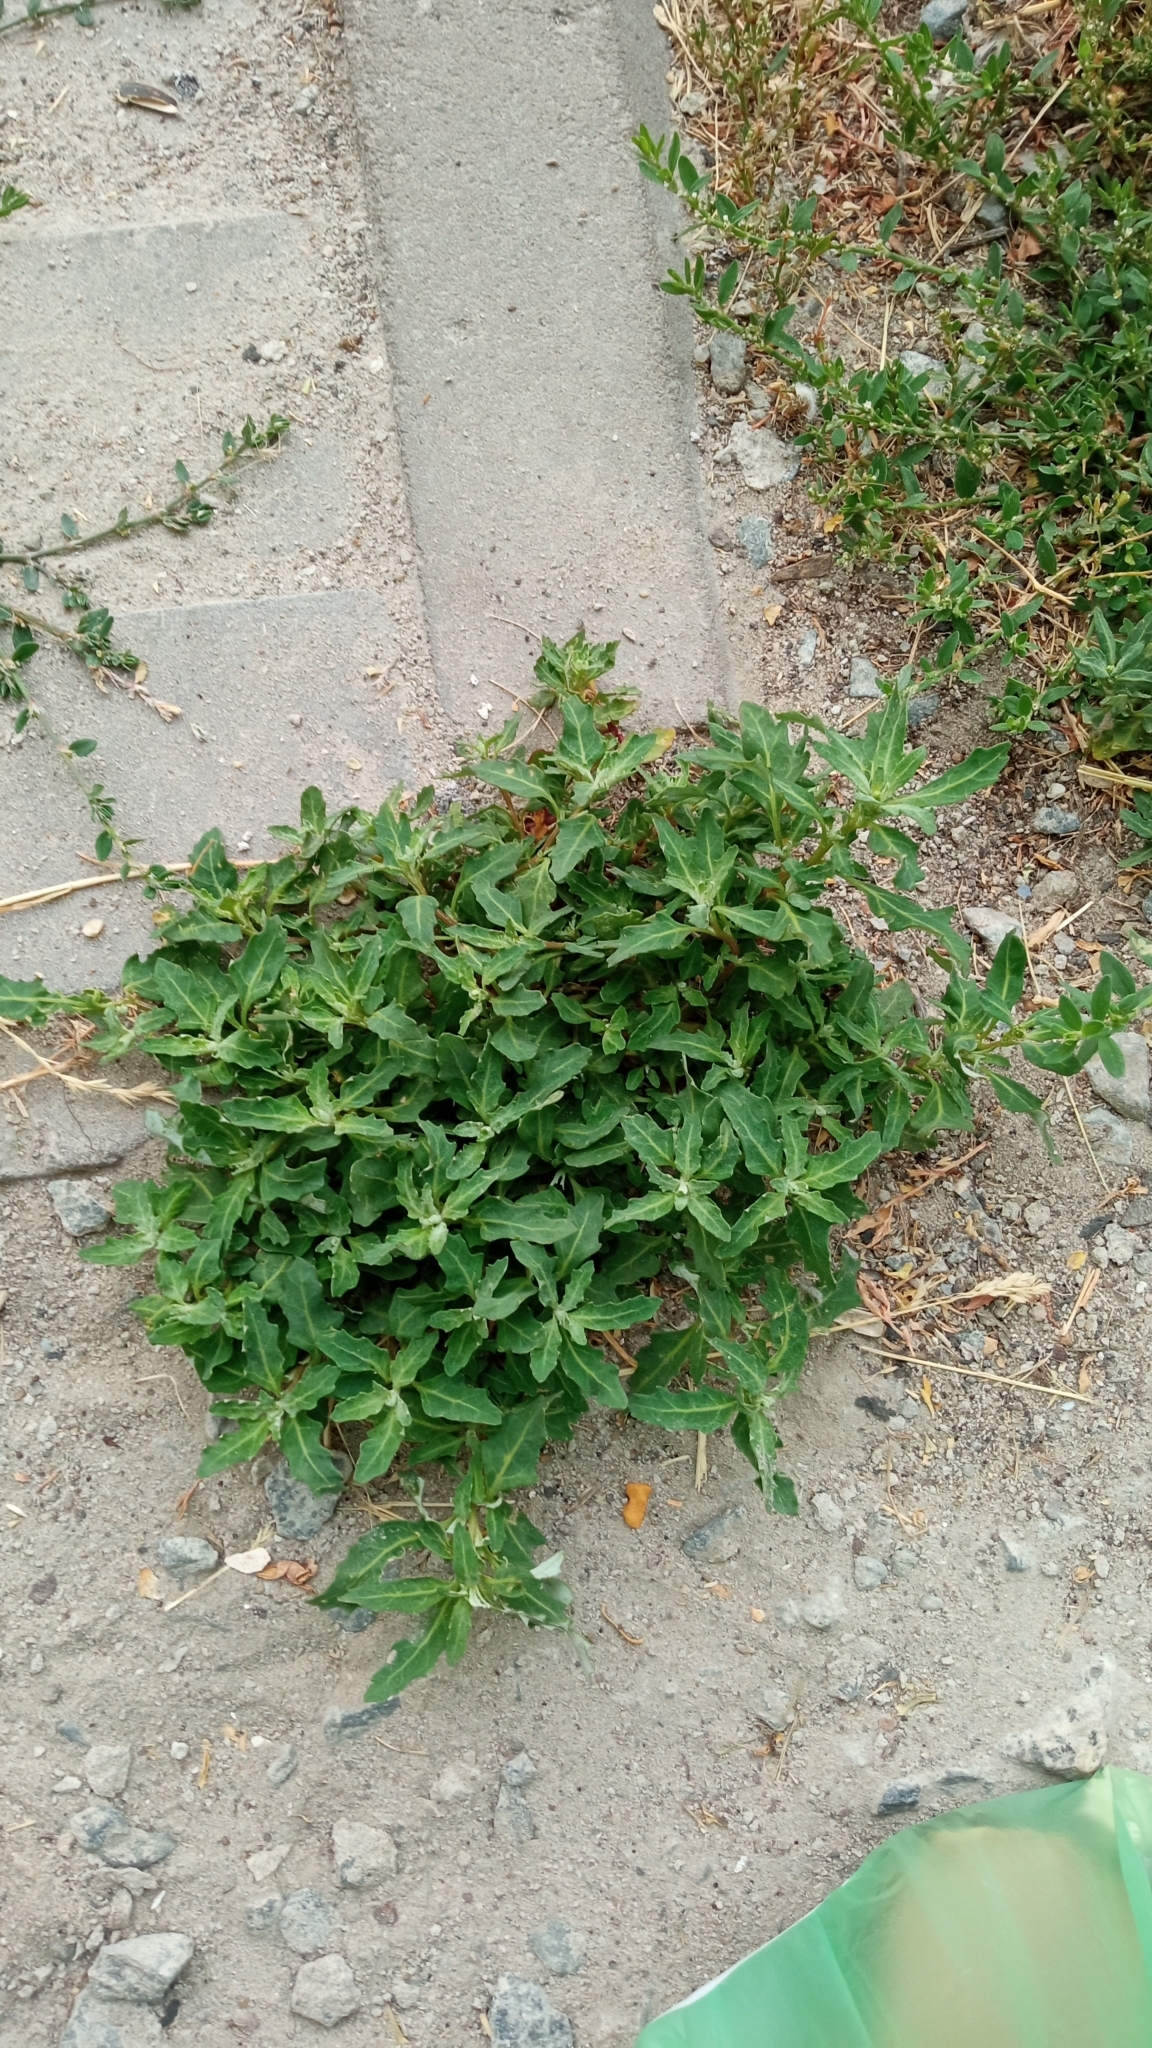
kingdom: Plantae
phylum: Tracheophyta
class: Magnoliopsida
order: Caryophyllales
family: Amaranthaceae
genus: Oxybasis
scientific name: Oxybasis glauca
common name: Glaucous goosefoot
